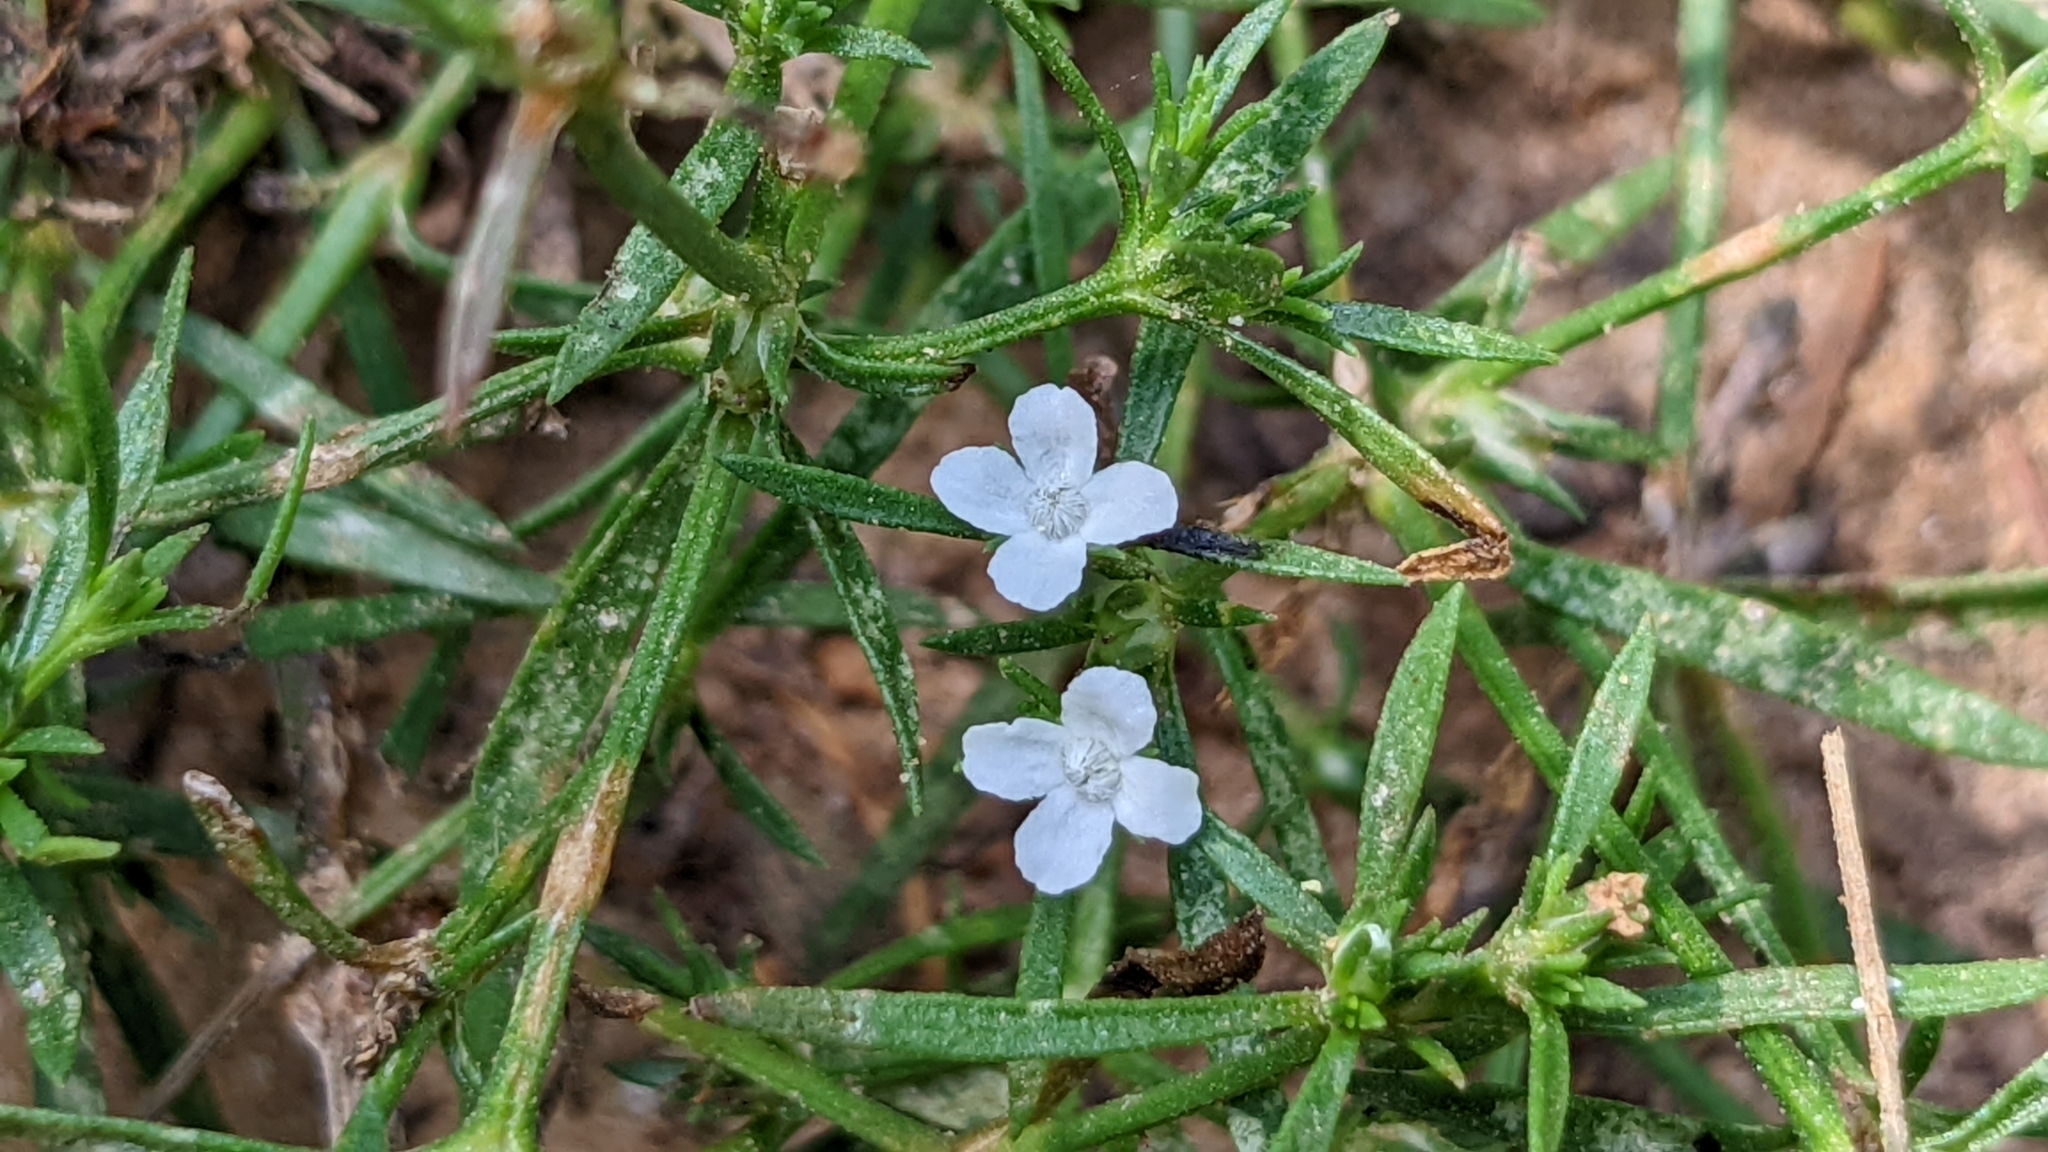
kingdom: Plantae
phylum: Tracheophyta
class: Magnoliopsida
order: Lamiales
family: Tetrachondraceae
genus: Polypremum
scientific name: Polypremum procumbens
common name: Juniper-leaf
